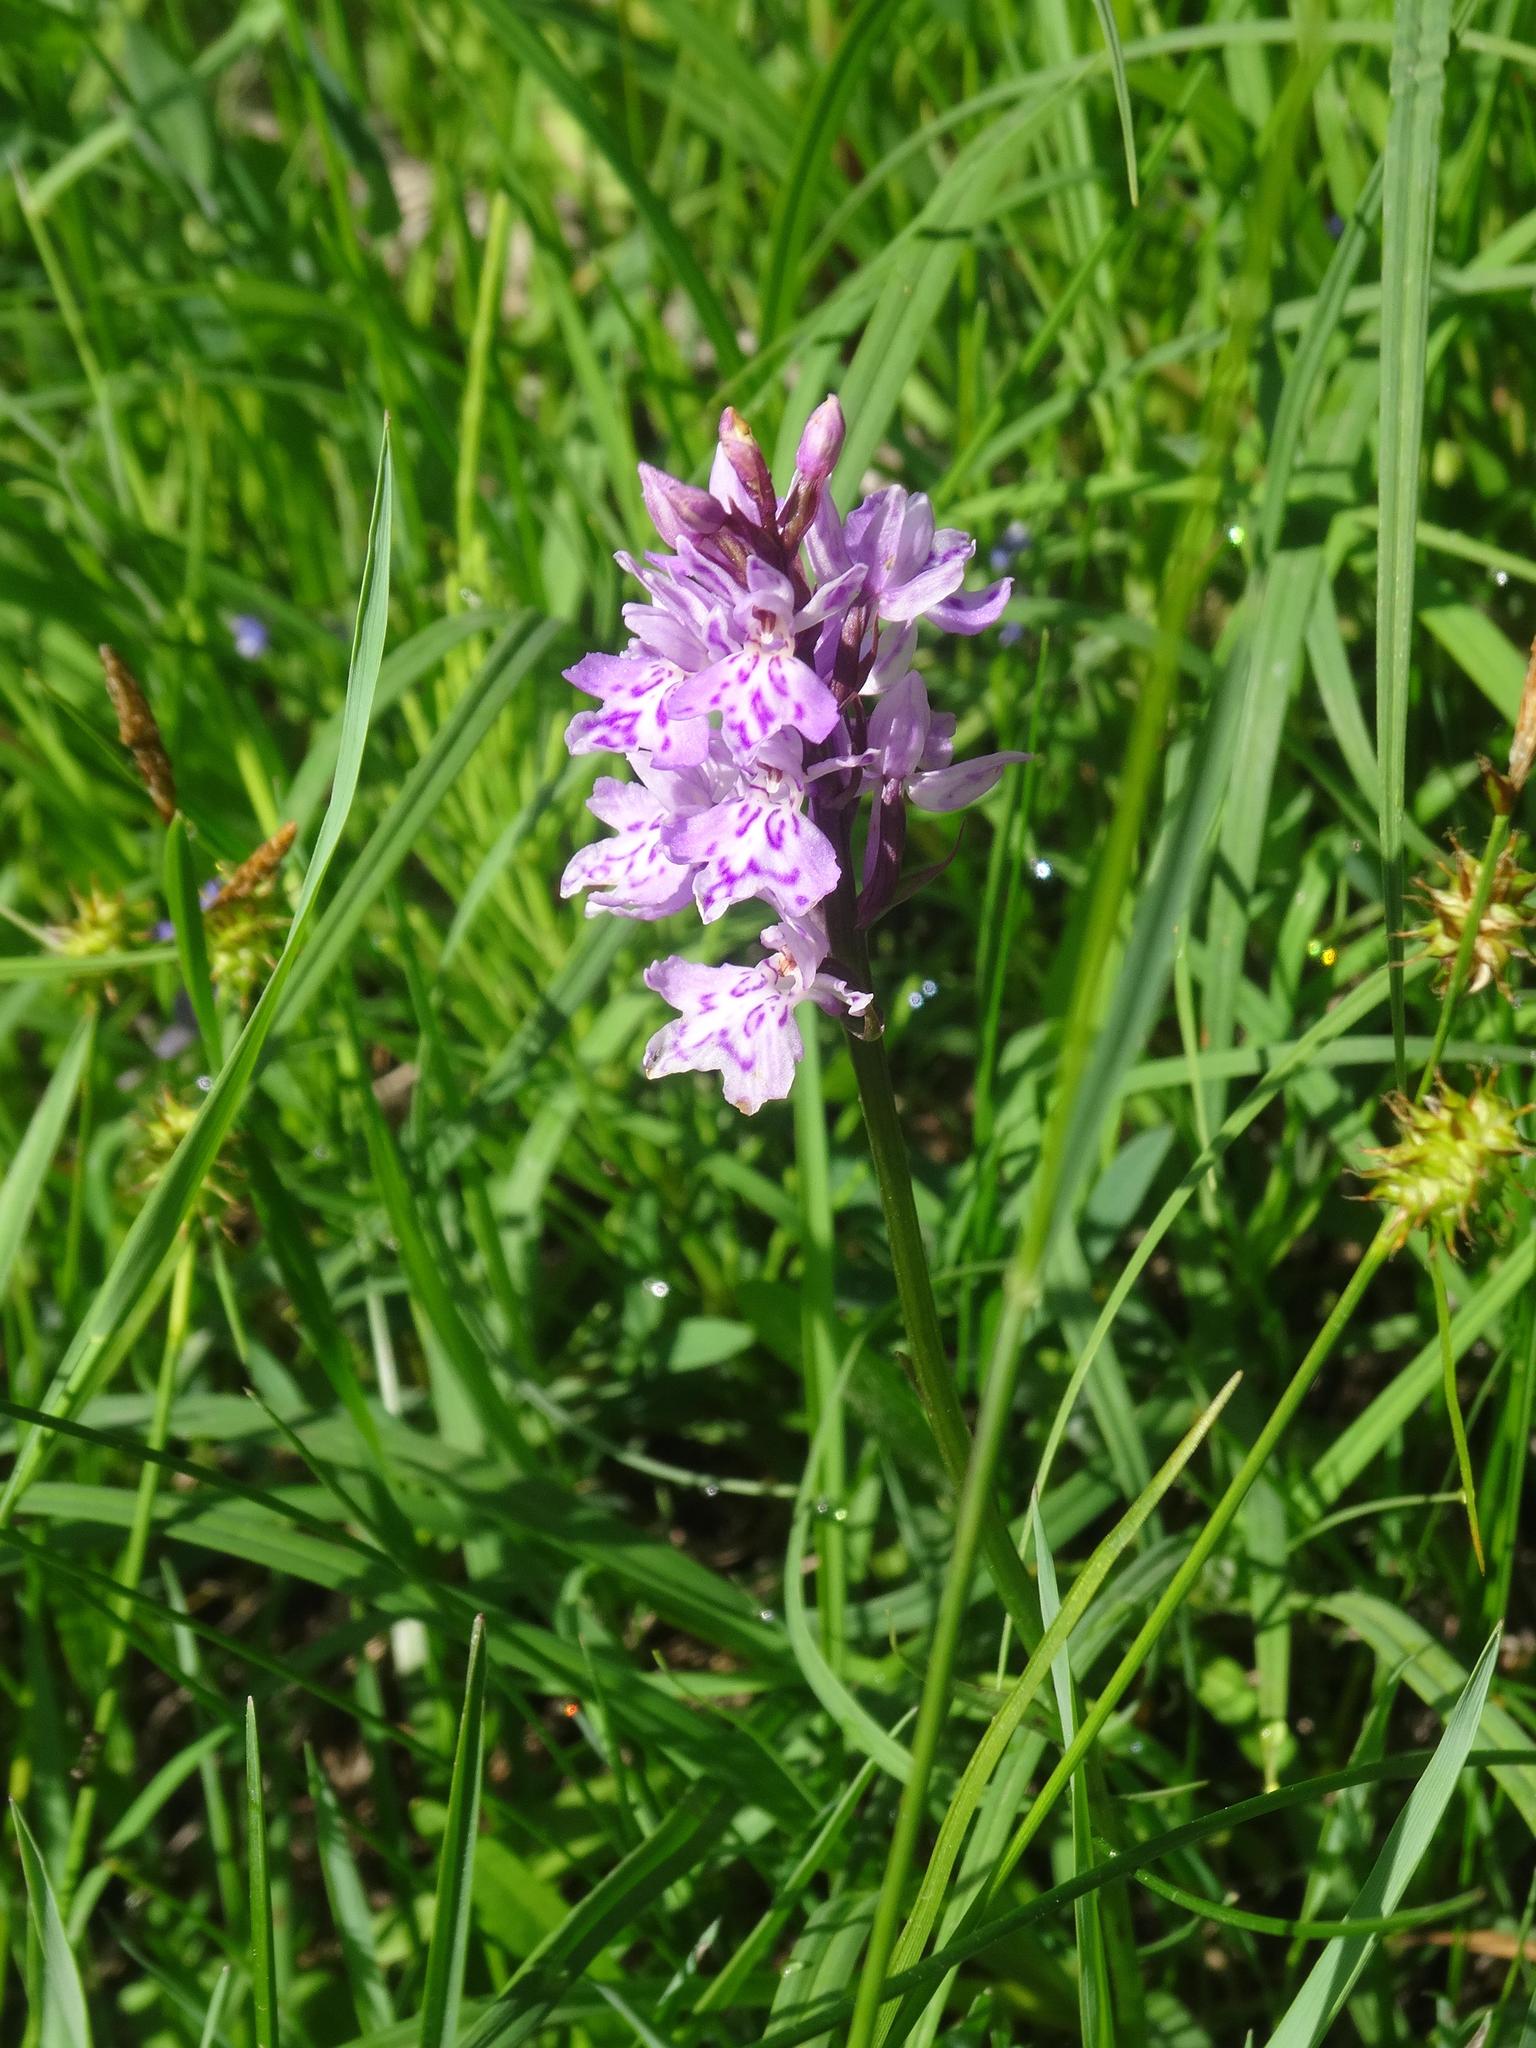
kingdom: Plantae
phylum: Tracheophyta
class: Liliopsida
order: Asparagales
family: Orchidaceae
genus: Dactylorhiza
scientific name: Dactylorhiza maculata
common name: Heath spotted-orchid
